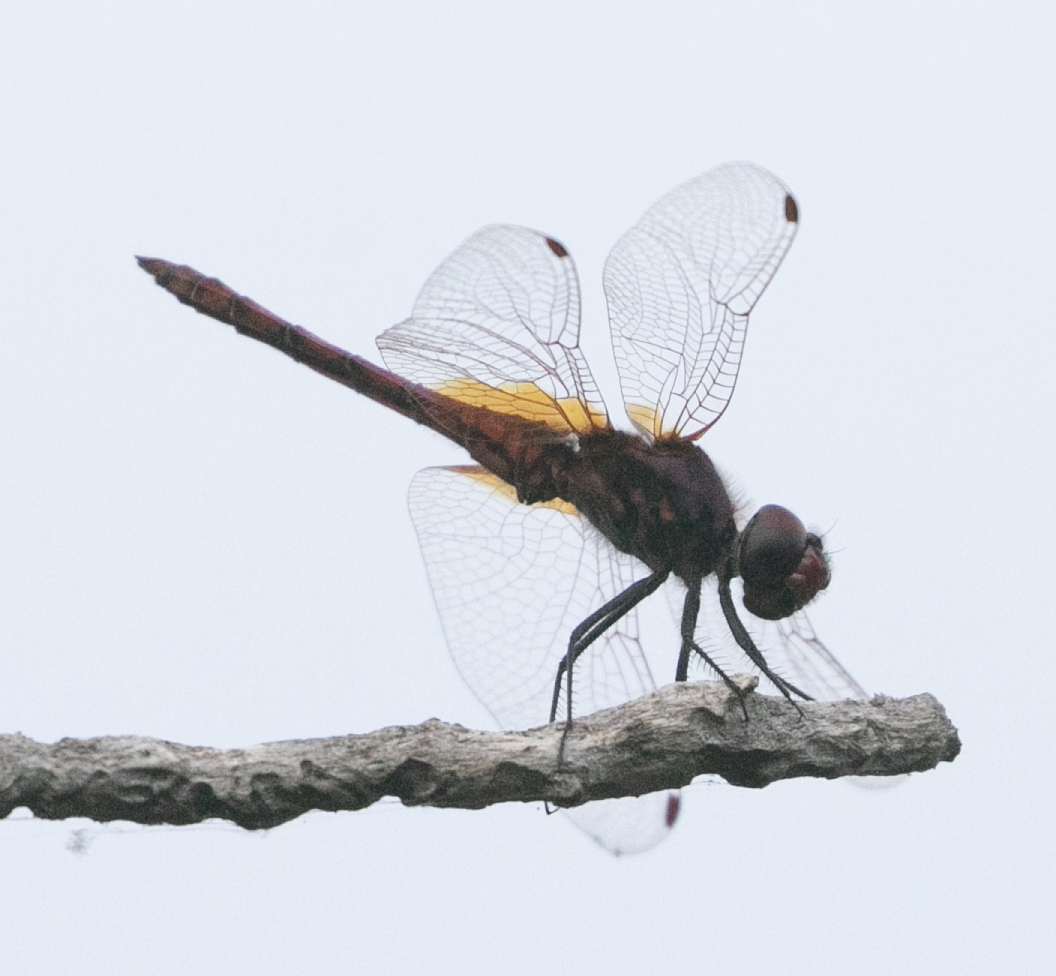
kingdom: Animalia
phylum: Arthropoda
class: Insecta
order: Odonata
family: Libellulidae
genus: Trithemis
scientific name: Trithemis annulata
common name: Violet dropwing
